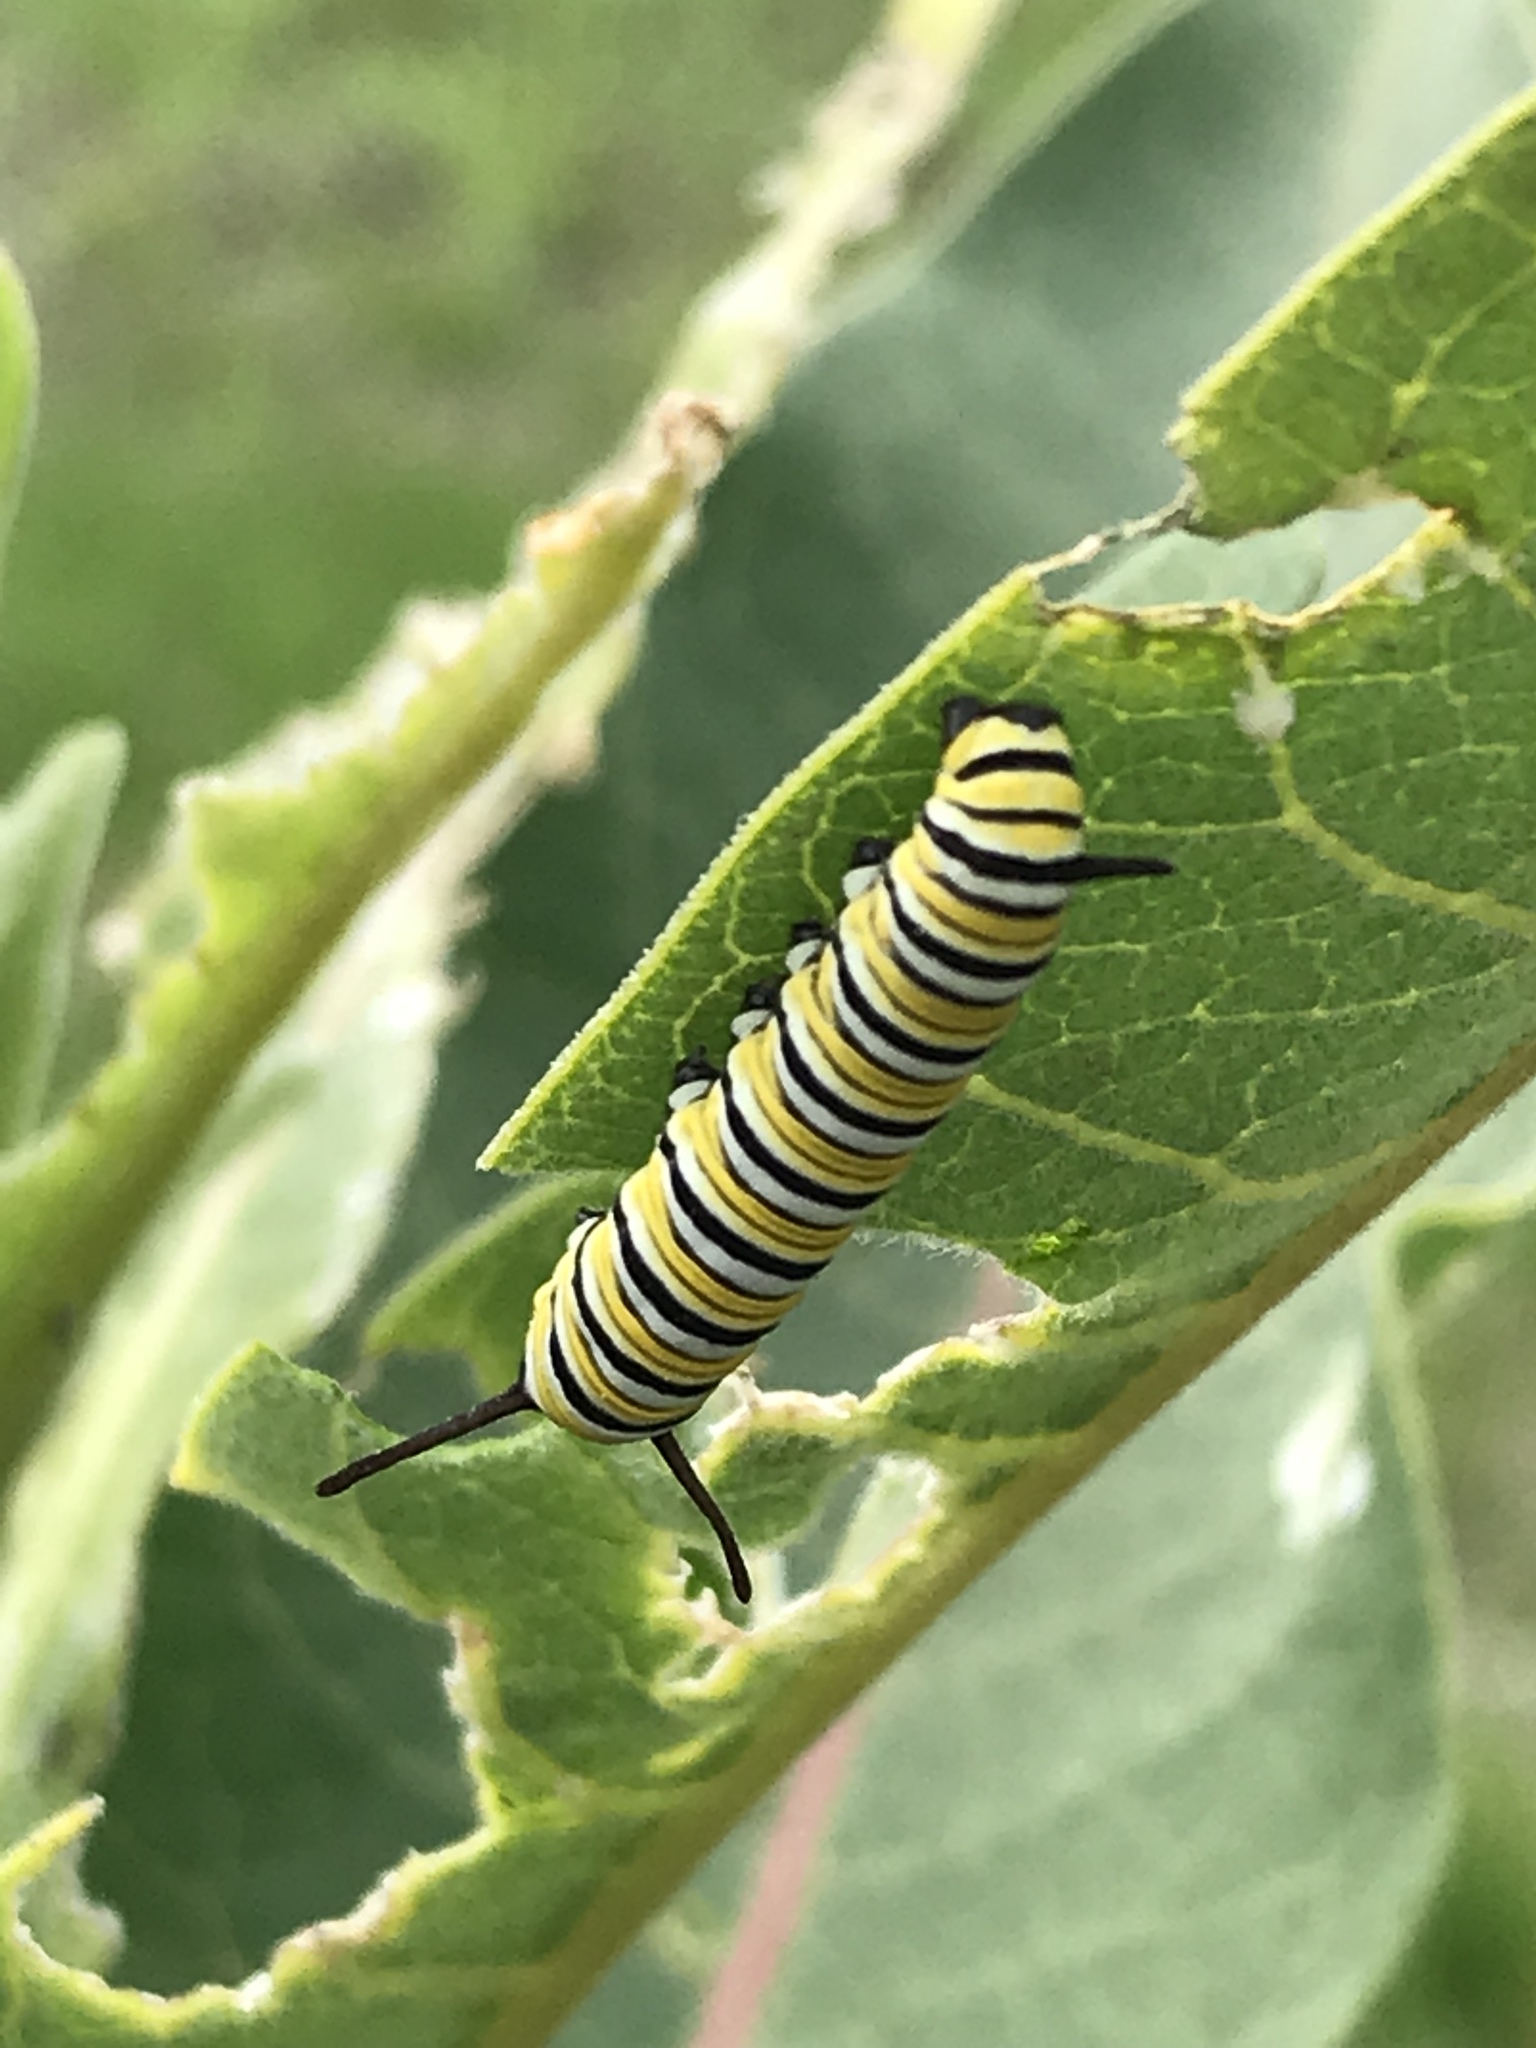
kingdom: Animalia
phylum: Arthropoda
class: Insecta
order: Lepidoptera
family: Nymphalidae
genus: Danaus
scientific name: Danaus plexippus
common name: Monarch
